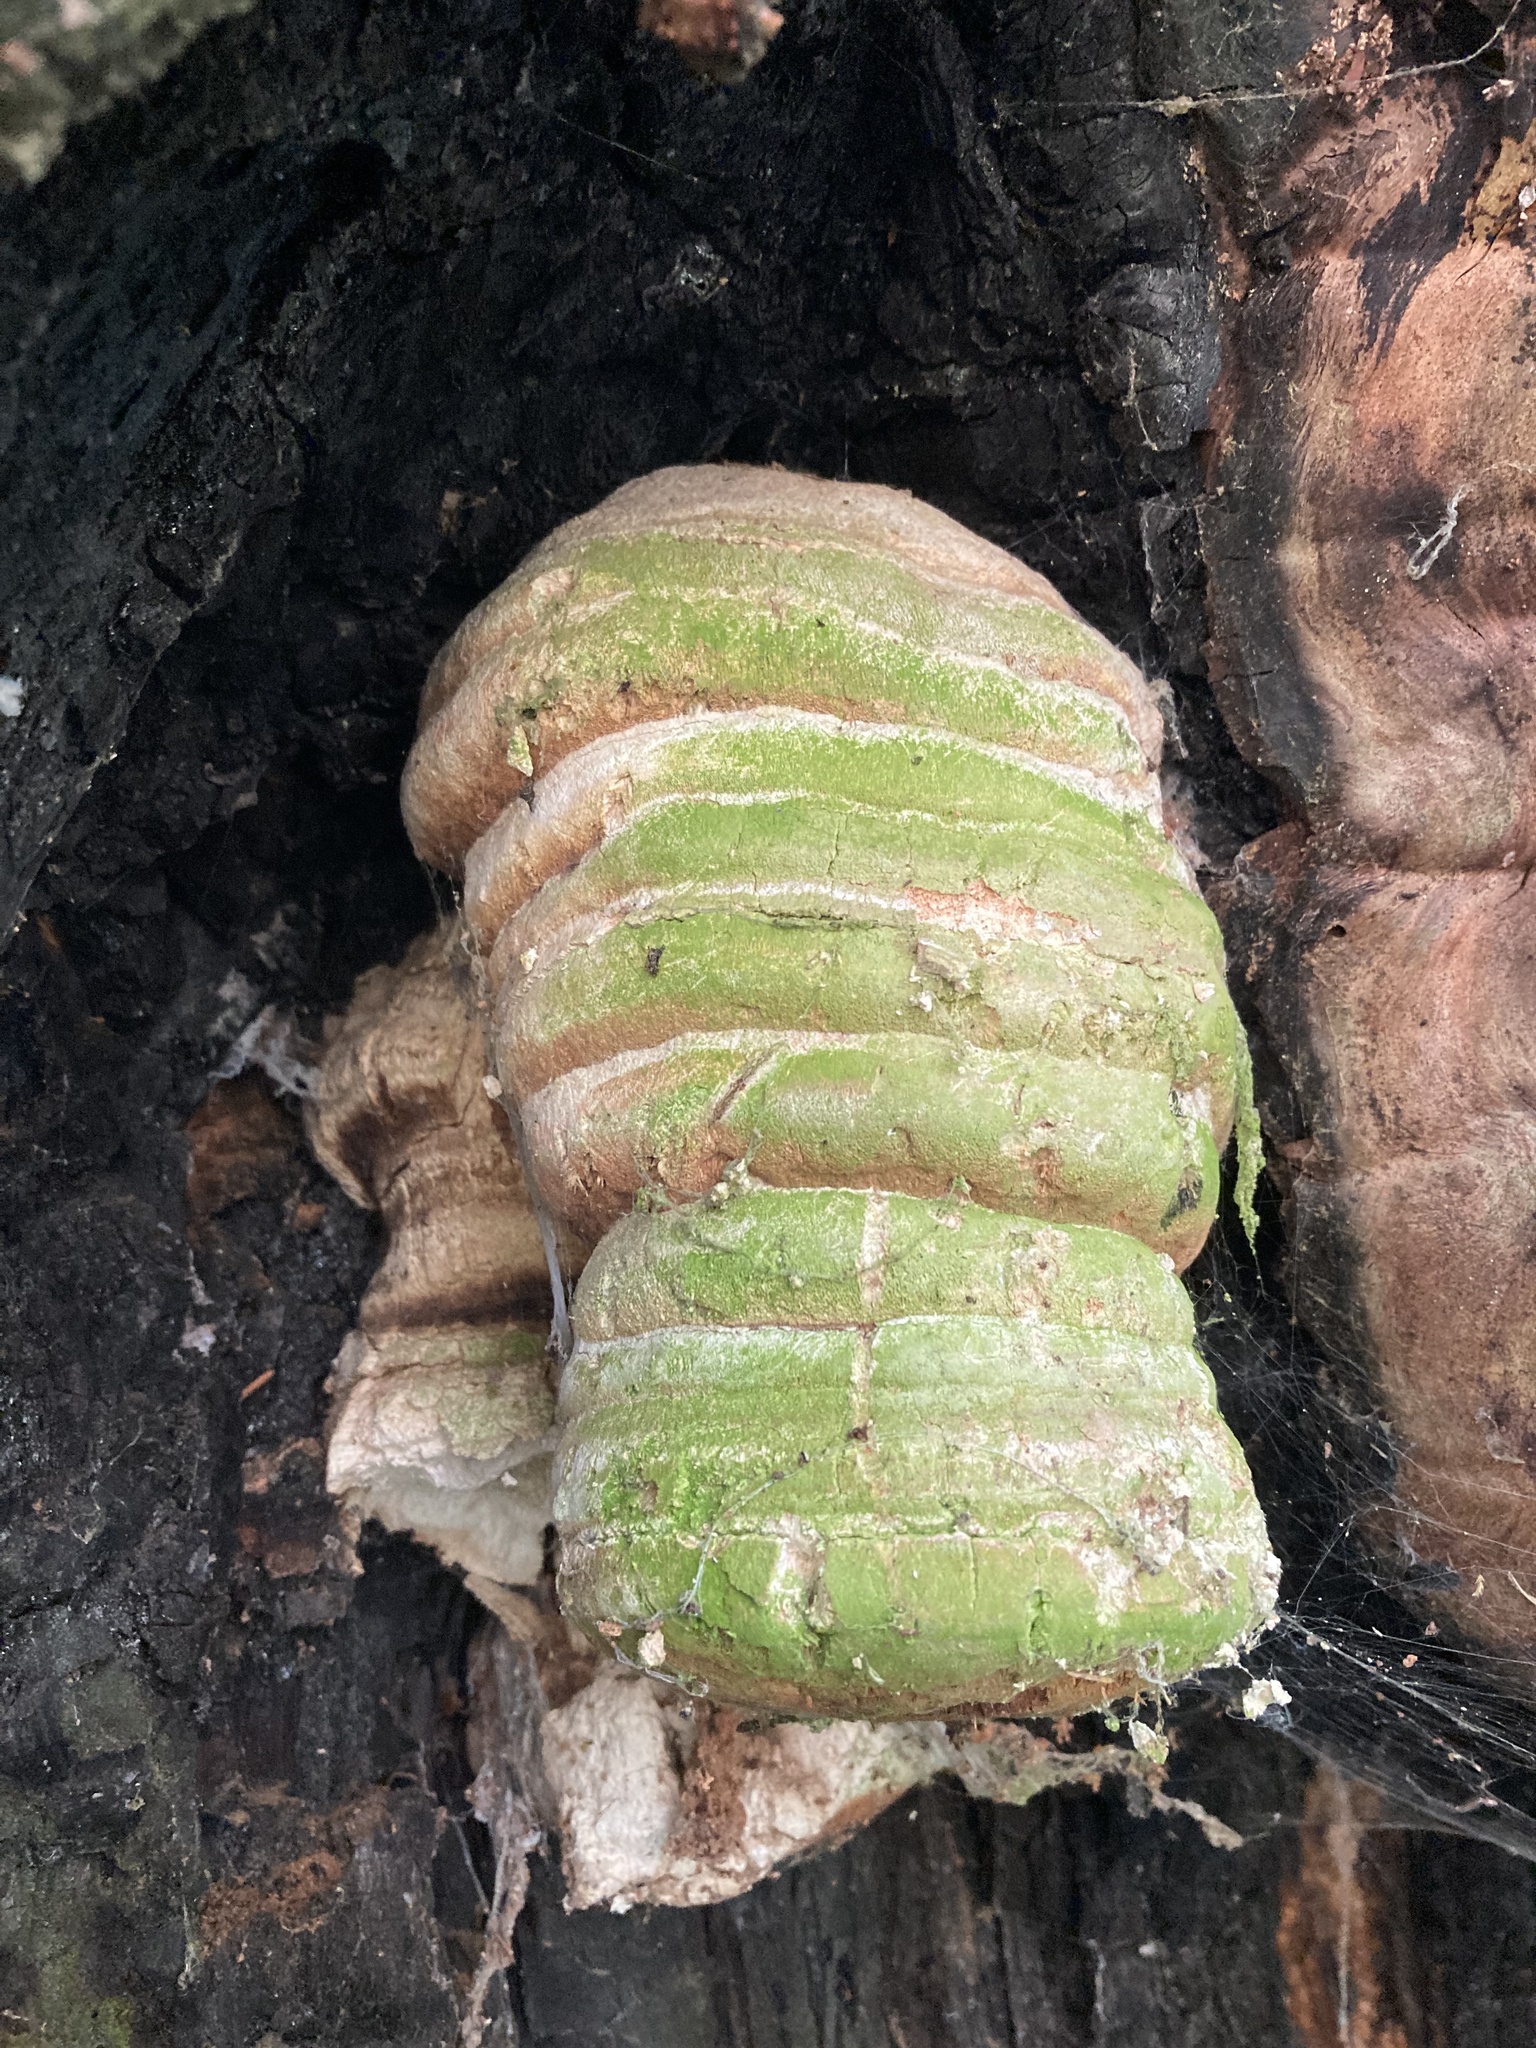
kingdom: Fungi
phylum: Basidiomycota
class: Agaricomycetes
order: Polyporales
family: Fomitopsidaceae
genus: Fomitopsis
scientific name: Fomitopsis officinalis
